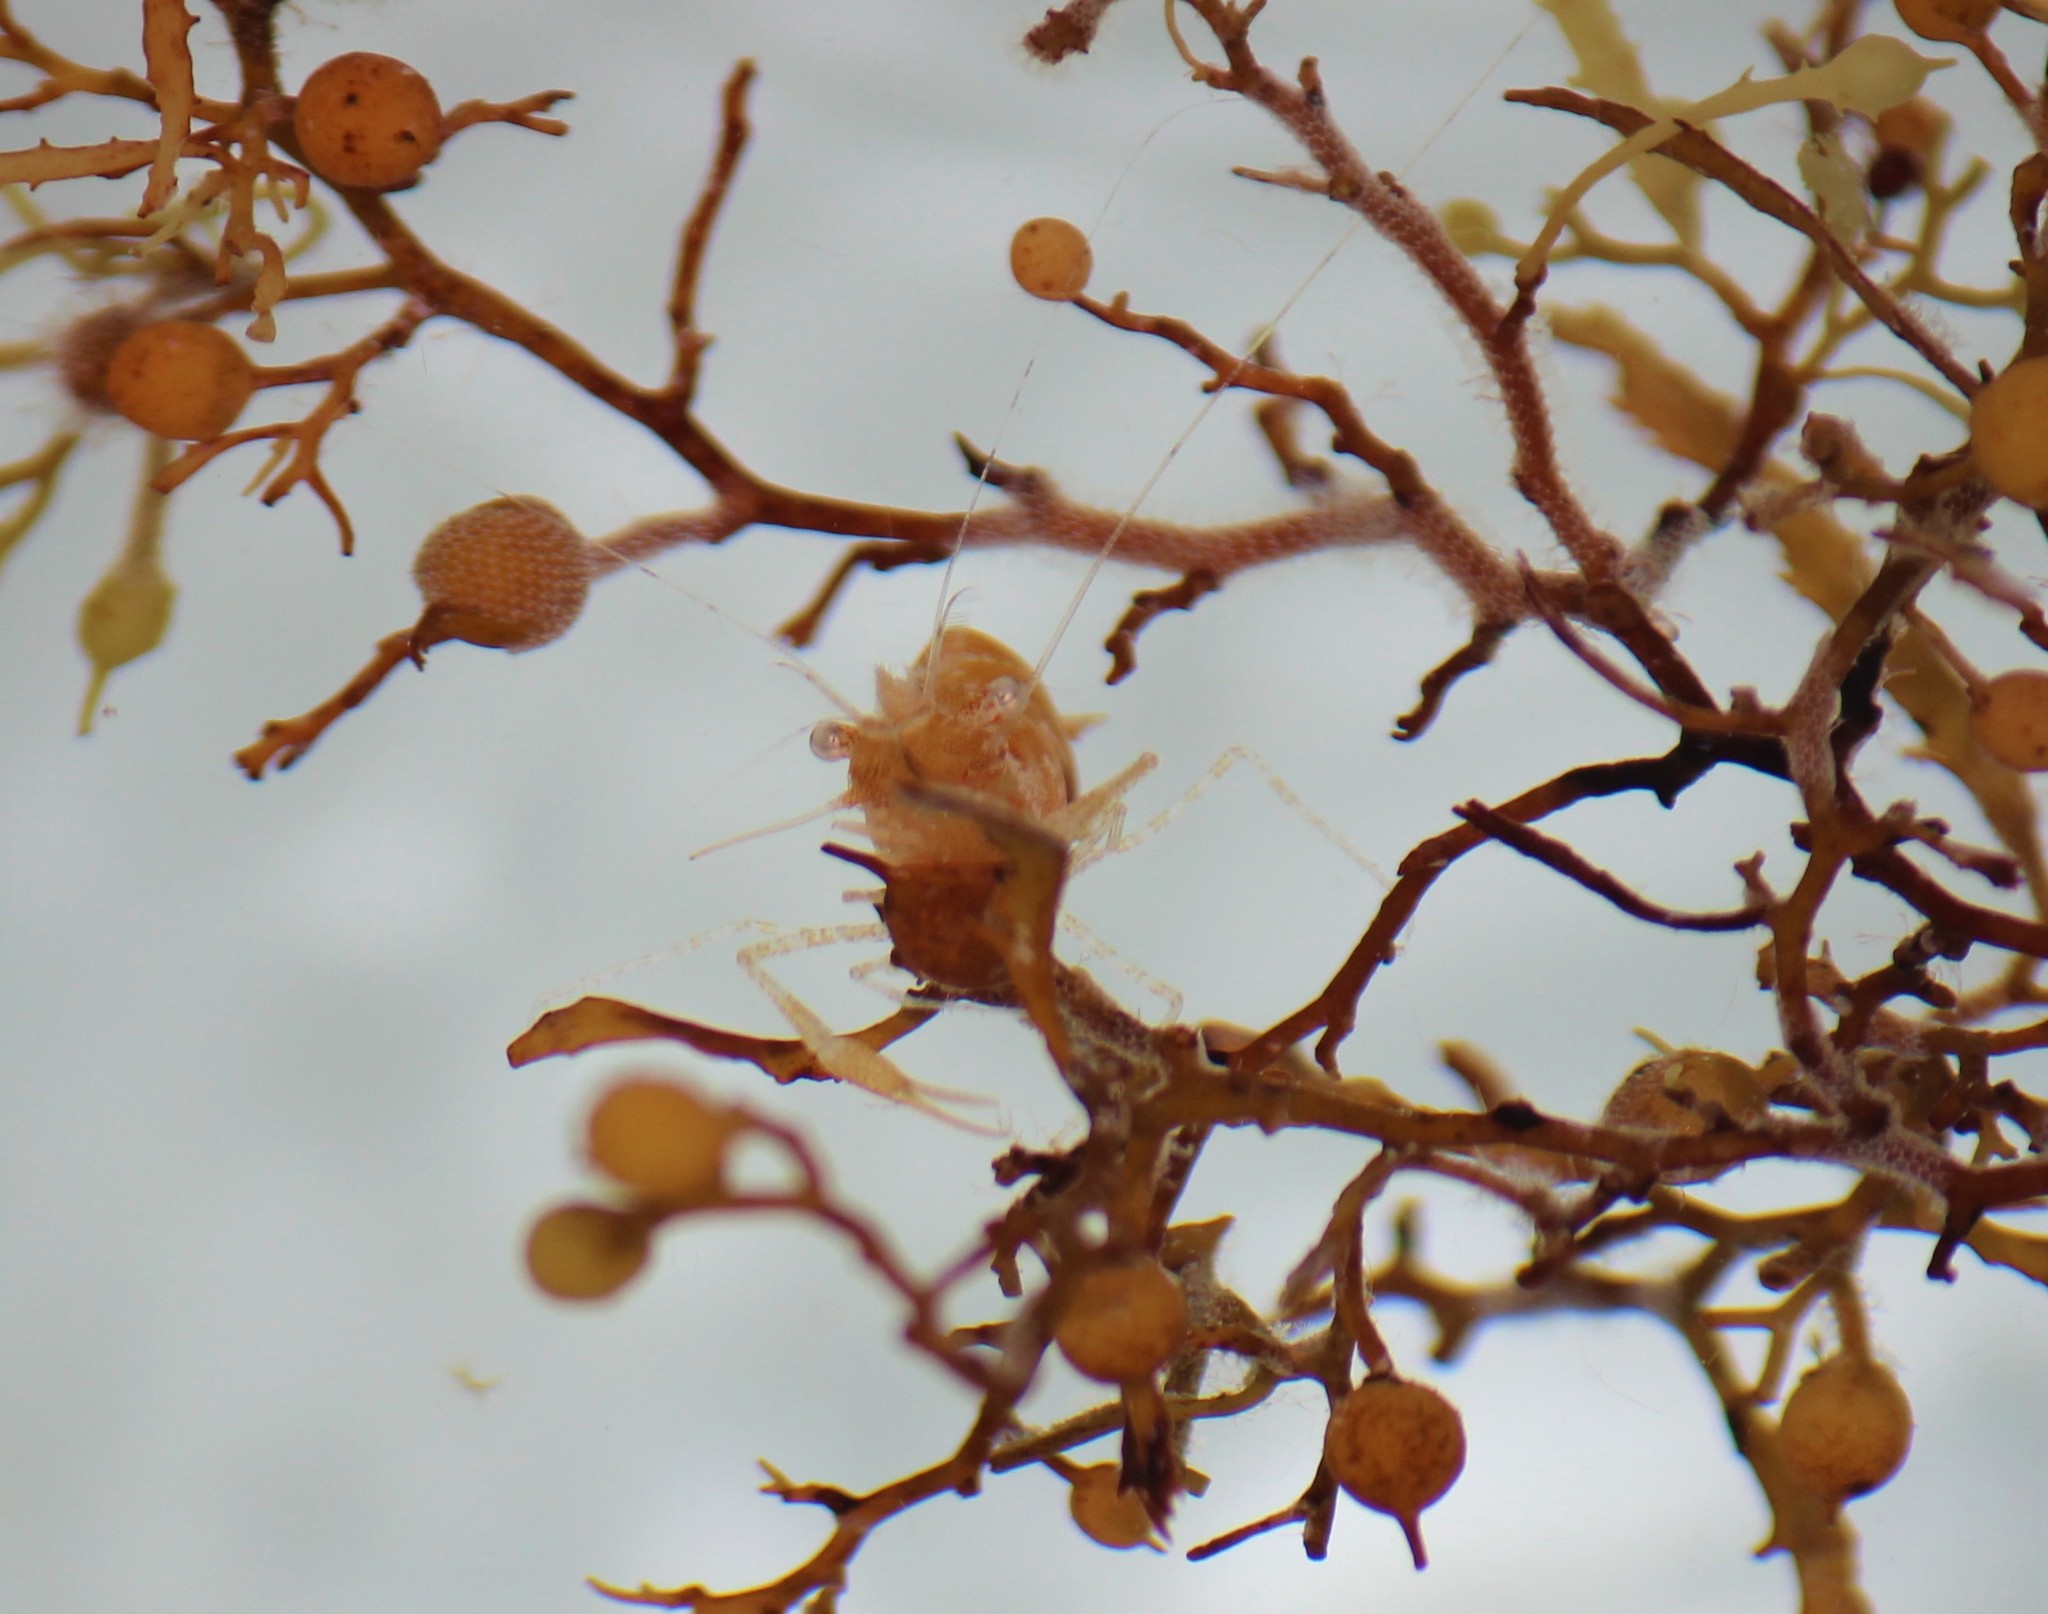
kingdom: Animalia
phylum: Arthropoda
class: Malacostraca
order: Decapoda
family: Palaemonidae
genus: Leander
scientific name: Leander tenuicornis
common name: Brown glass shrimp
